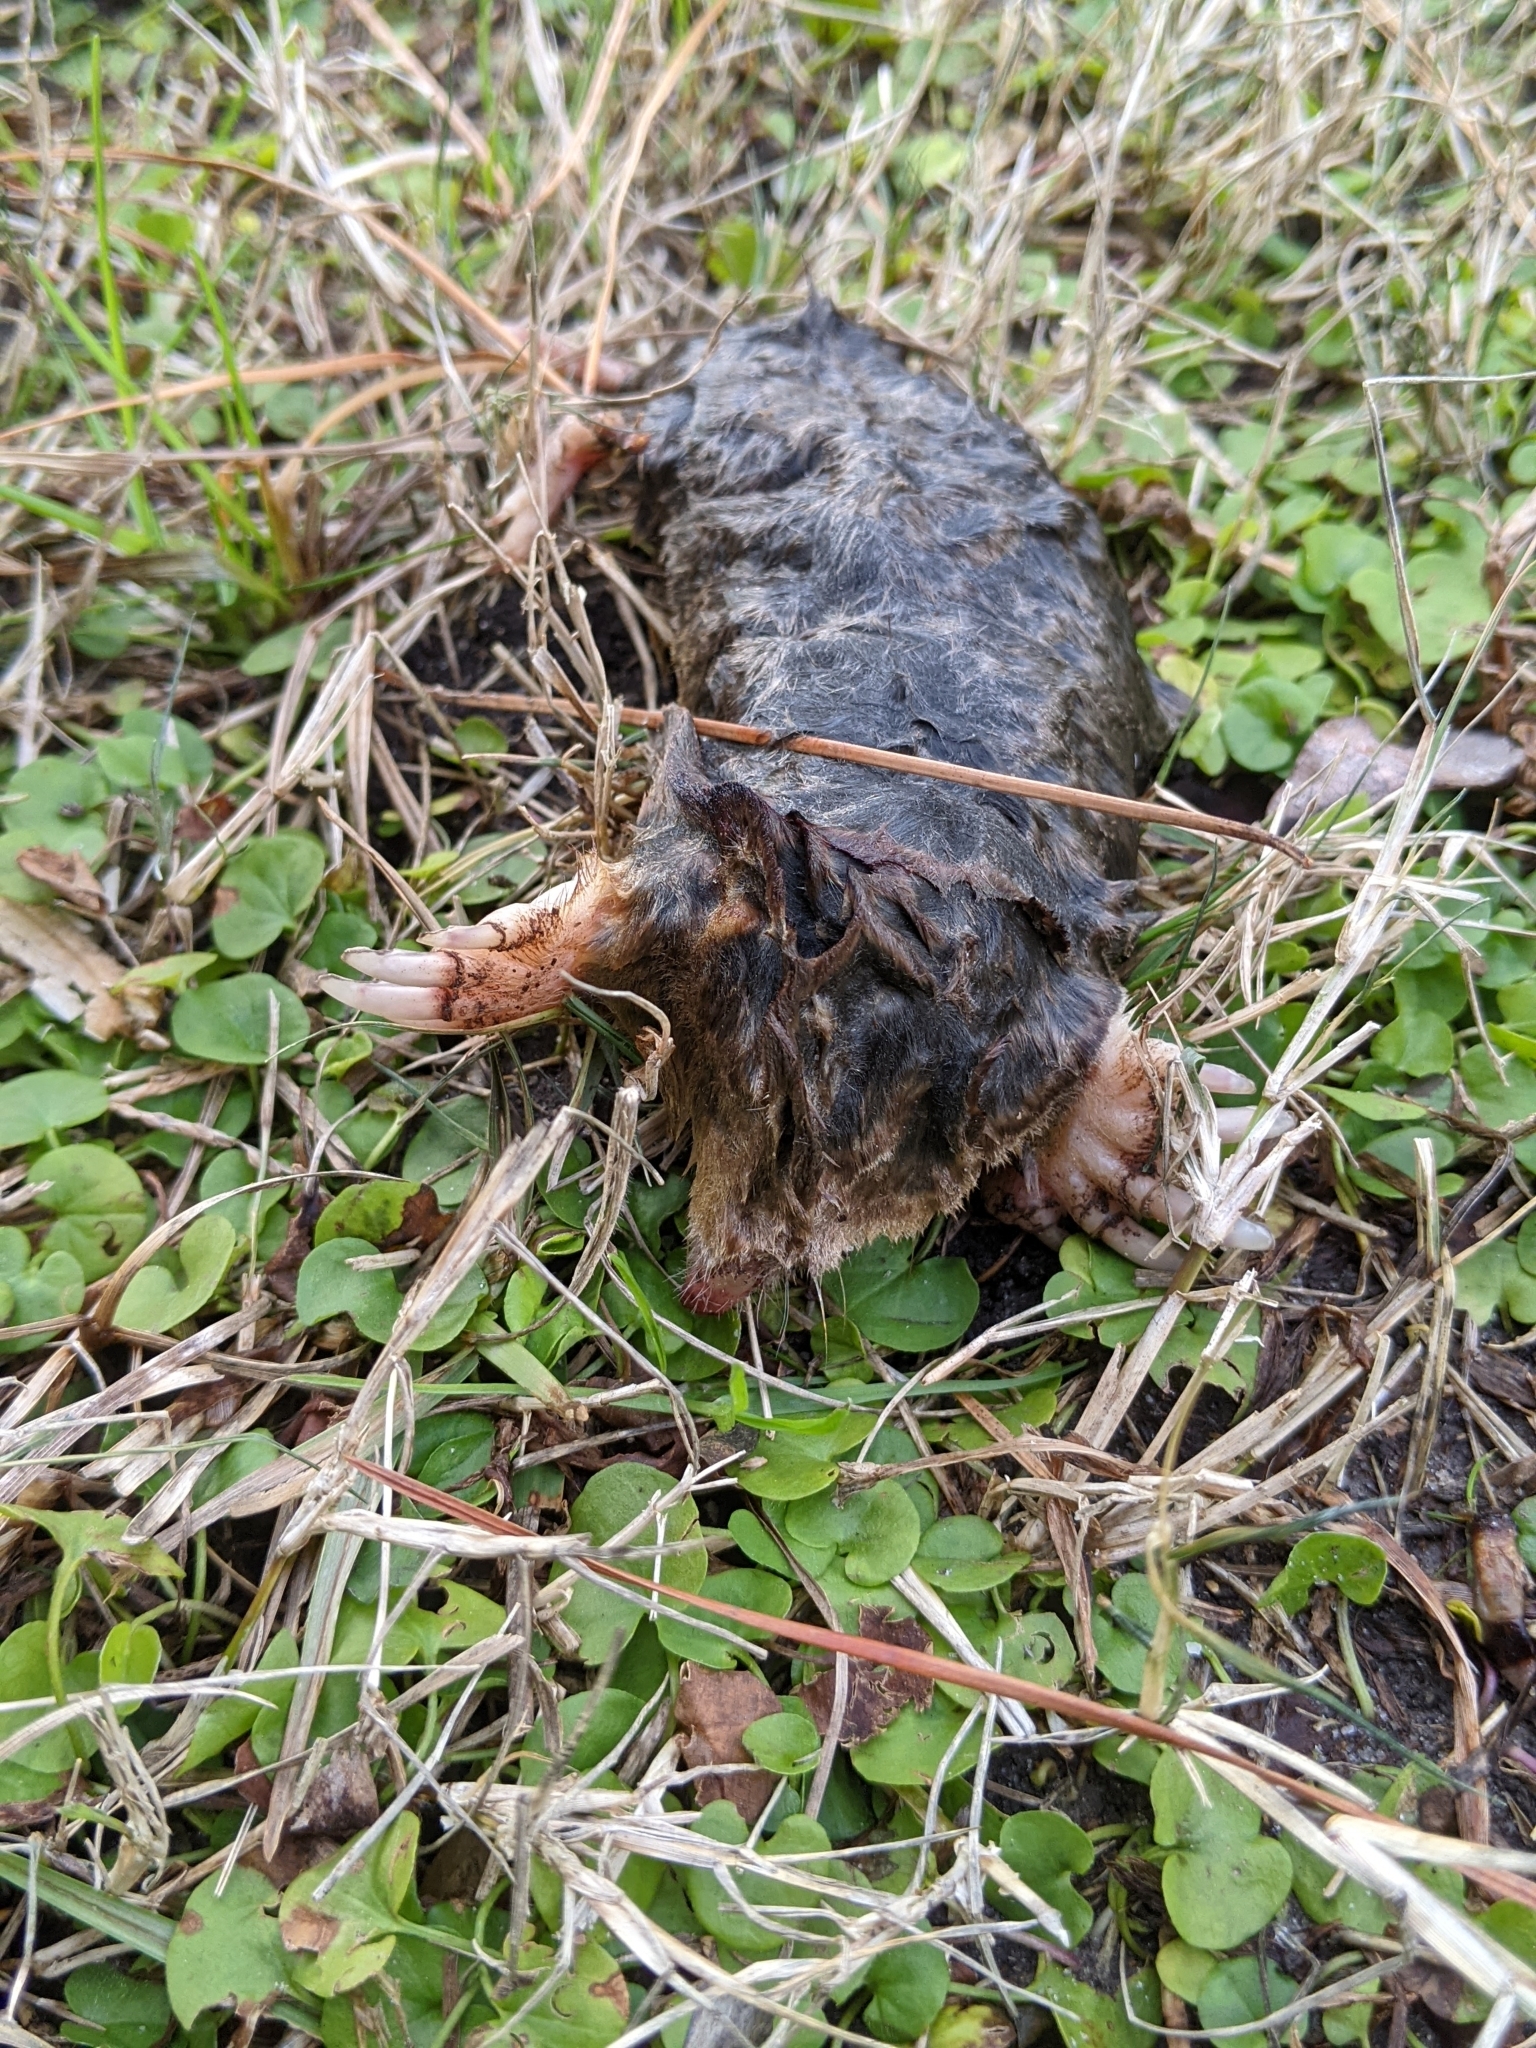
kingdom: Animalia
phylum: Chordata
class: Mammalia
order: Soricomorpha
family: Talpidae
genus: Scalopus
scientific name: Scalopus aquaticus
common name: Eastern mole
